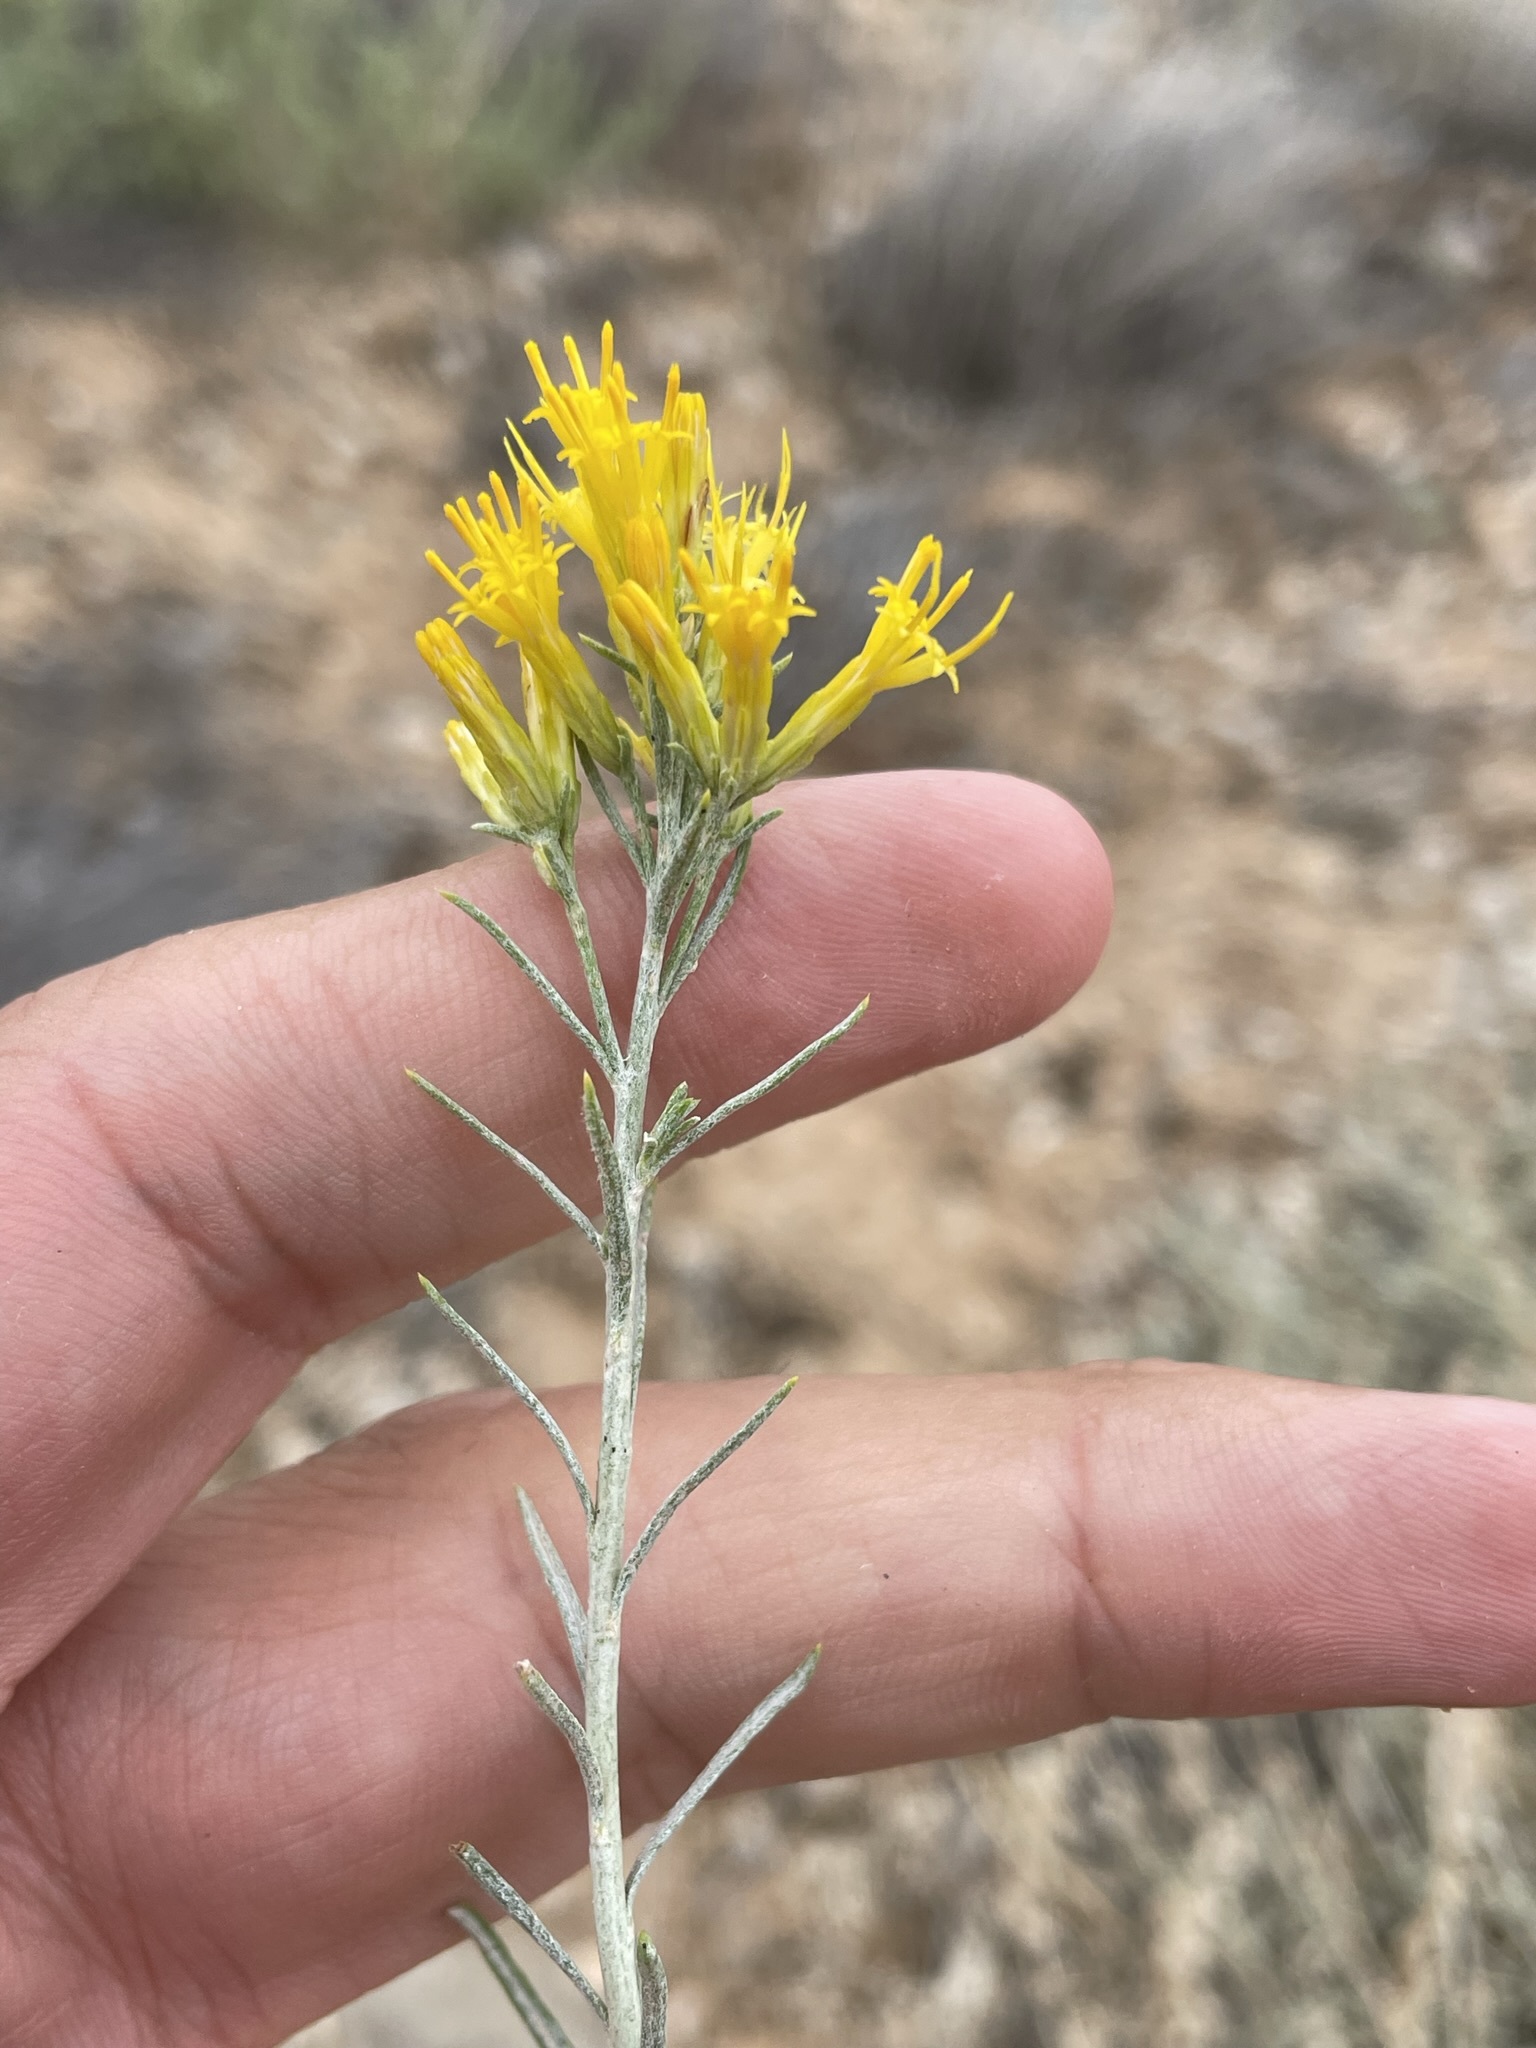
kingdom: Plantae
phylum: Tracheophyta
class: Magnoliopsida
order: Asterales
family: Asteraceae
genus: Ericameria
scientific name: Ericameria nauseosa
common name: Rubber rabbitbrush
